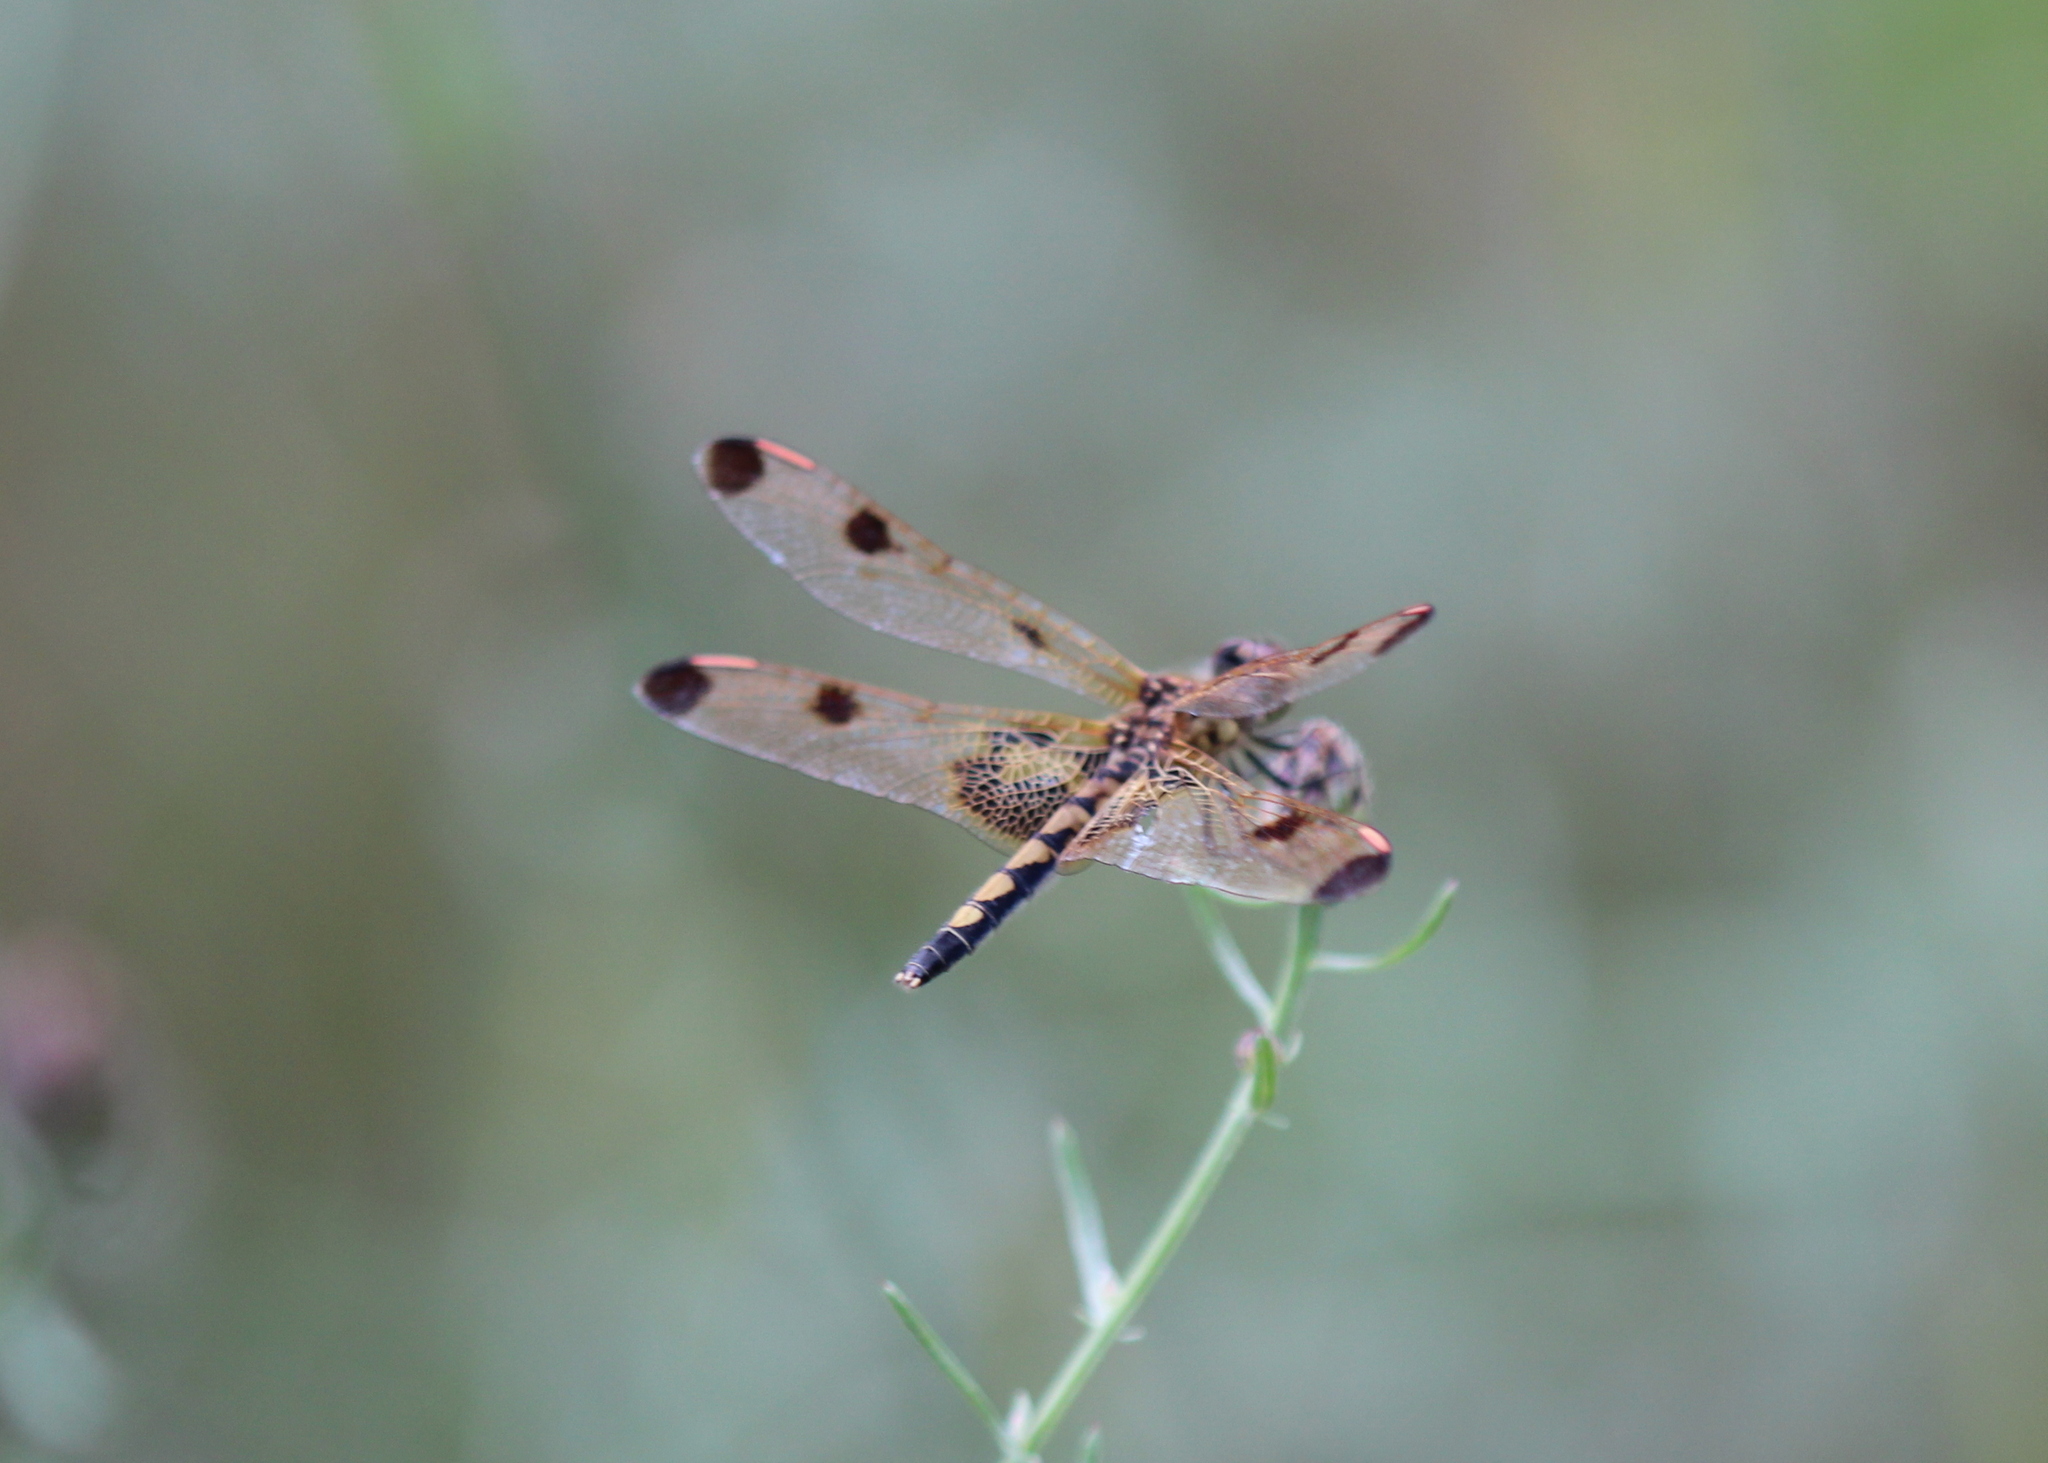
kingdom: Animalia
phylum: Arthropoda
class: Insecta
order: Odonata
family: Libellulidae
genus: Celithemis
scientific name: Celithemis elisa
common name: Calico pennant
